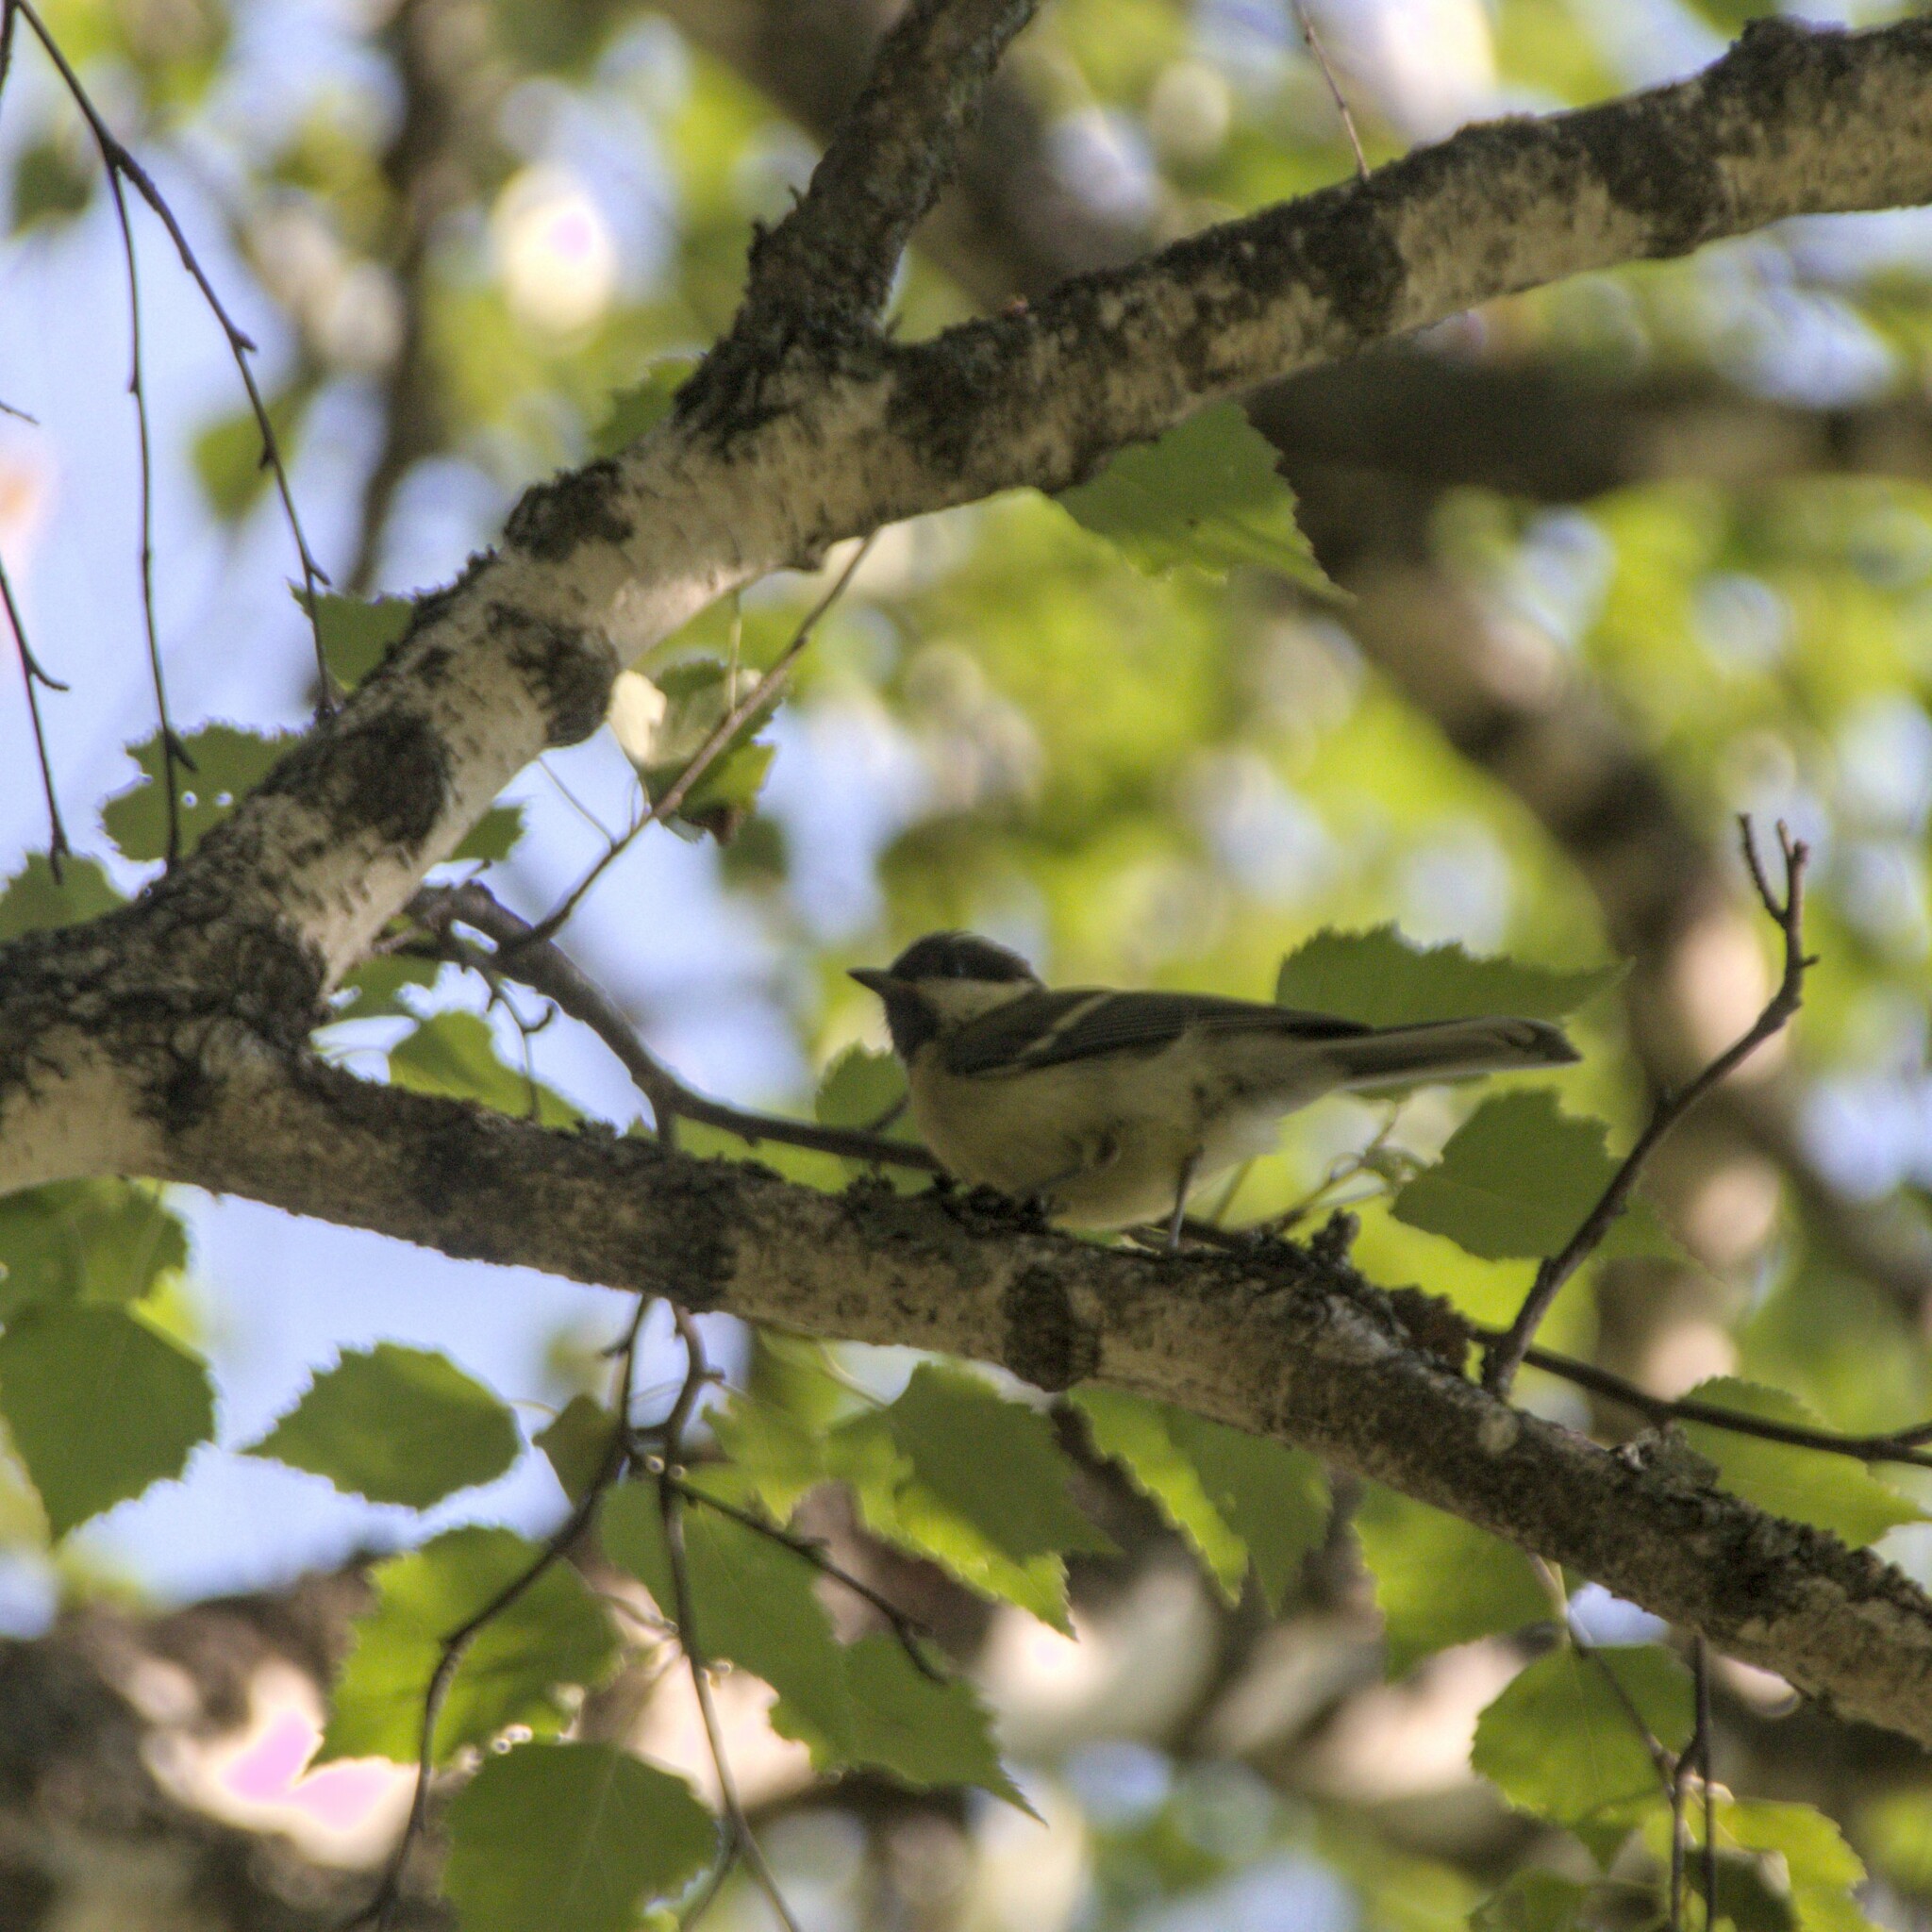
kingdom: Animalia
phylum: Chordata
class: Aves
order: Passeriformes
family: Paridae
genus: Parus
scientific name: Parus major
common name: Great tit
